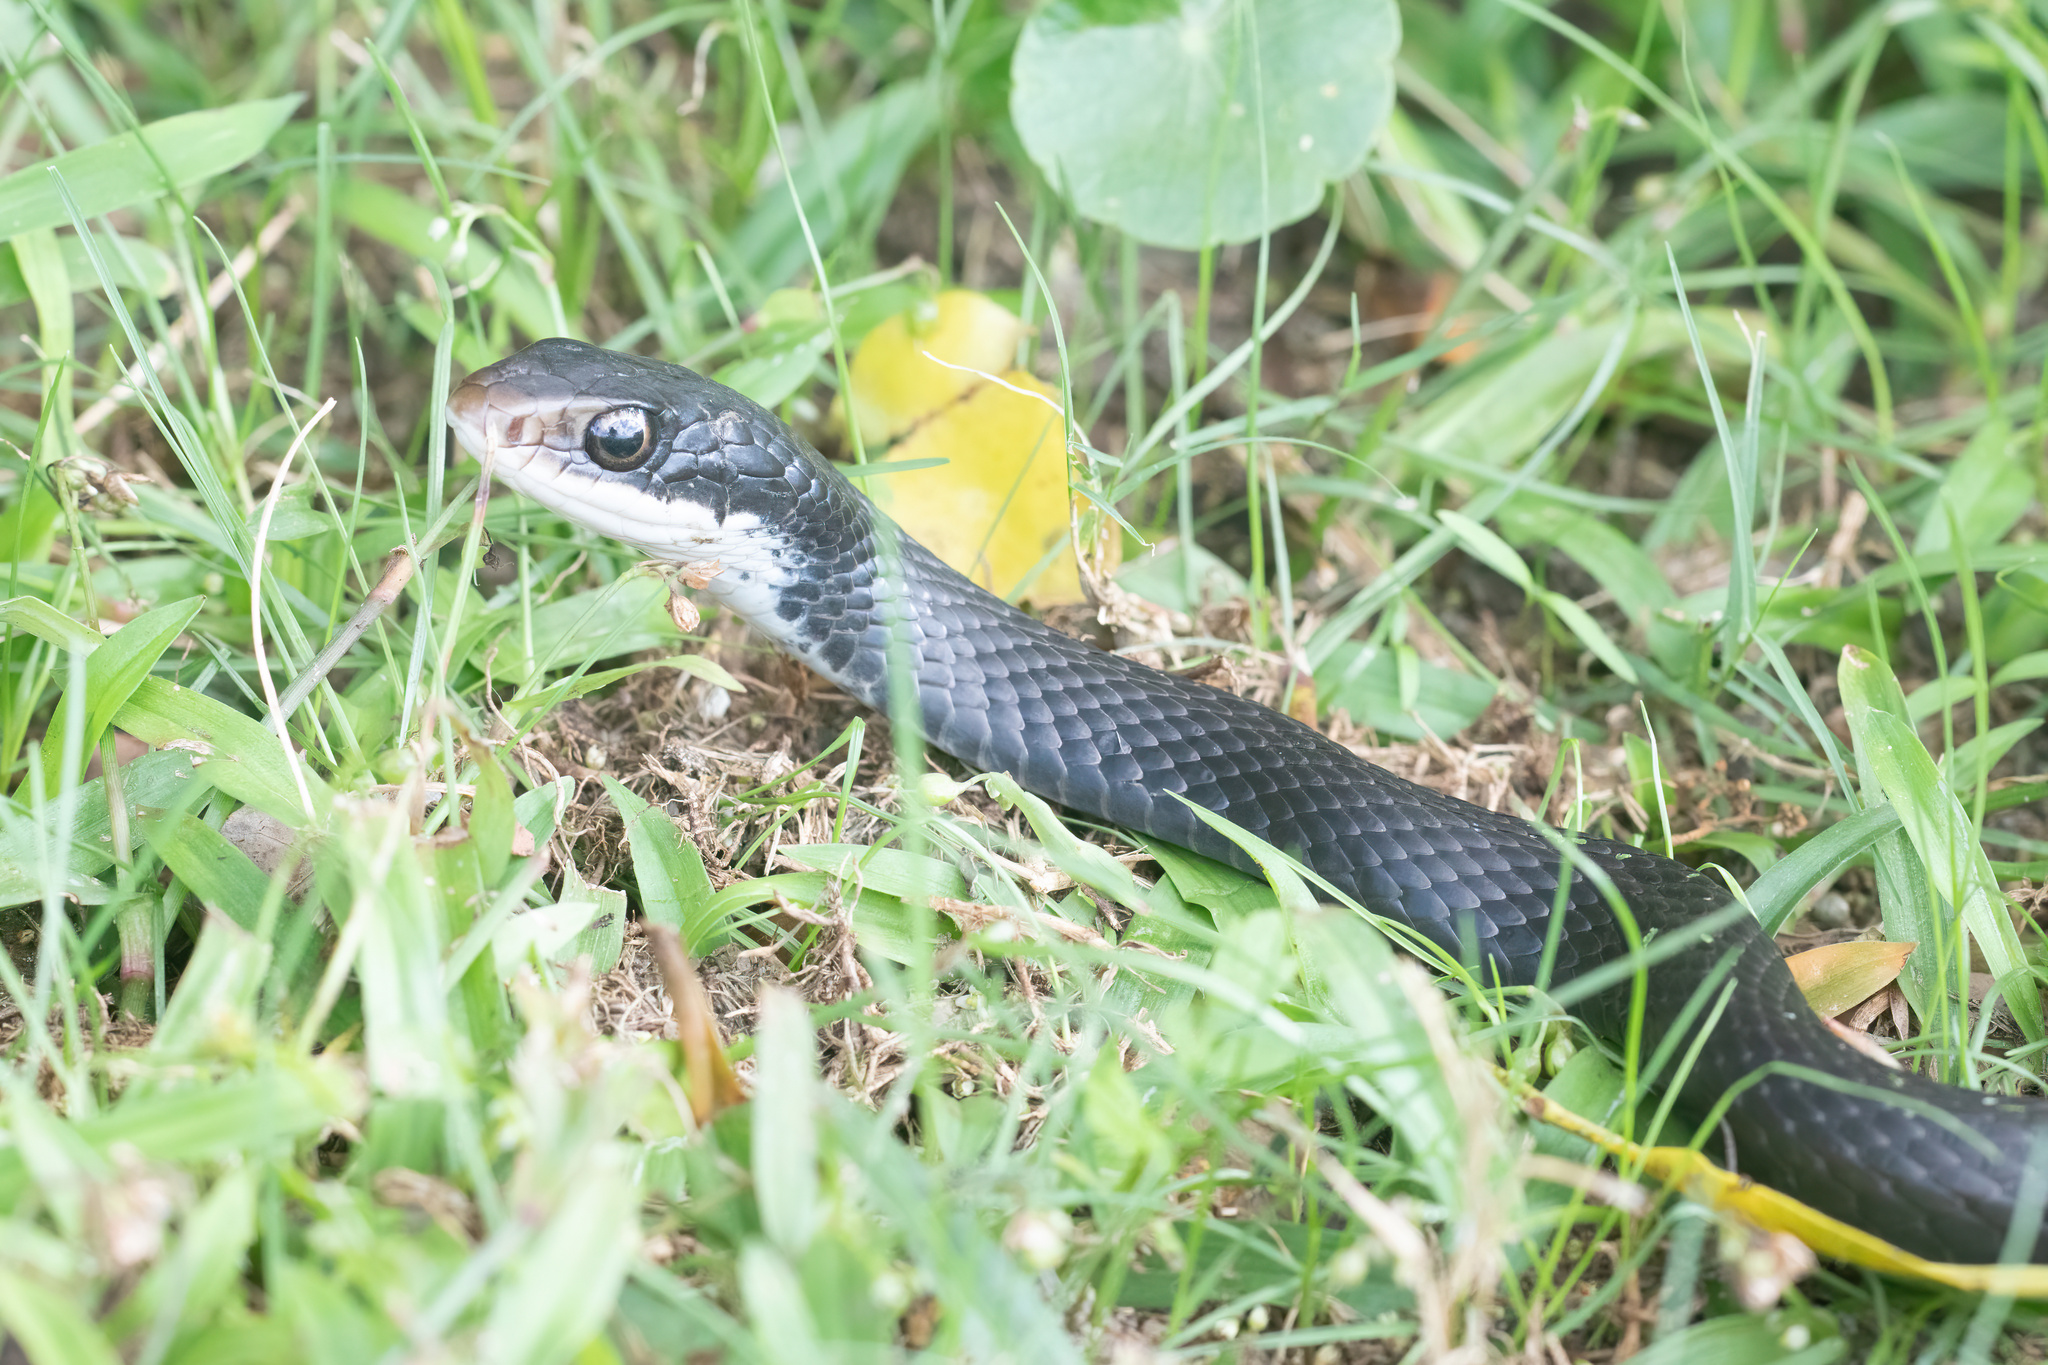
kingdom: Animalia
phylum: Chordata
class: Squamata
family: Colubridae
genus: Coluber
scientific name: Coluber constrictor
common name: Eastern racer
